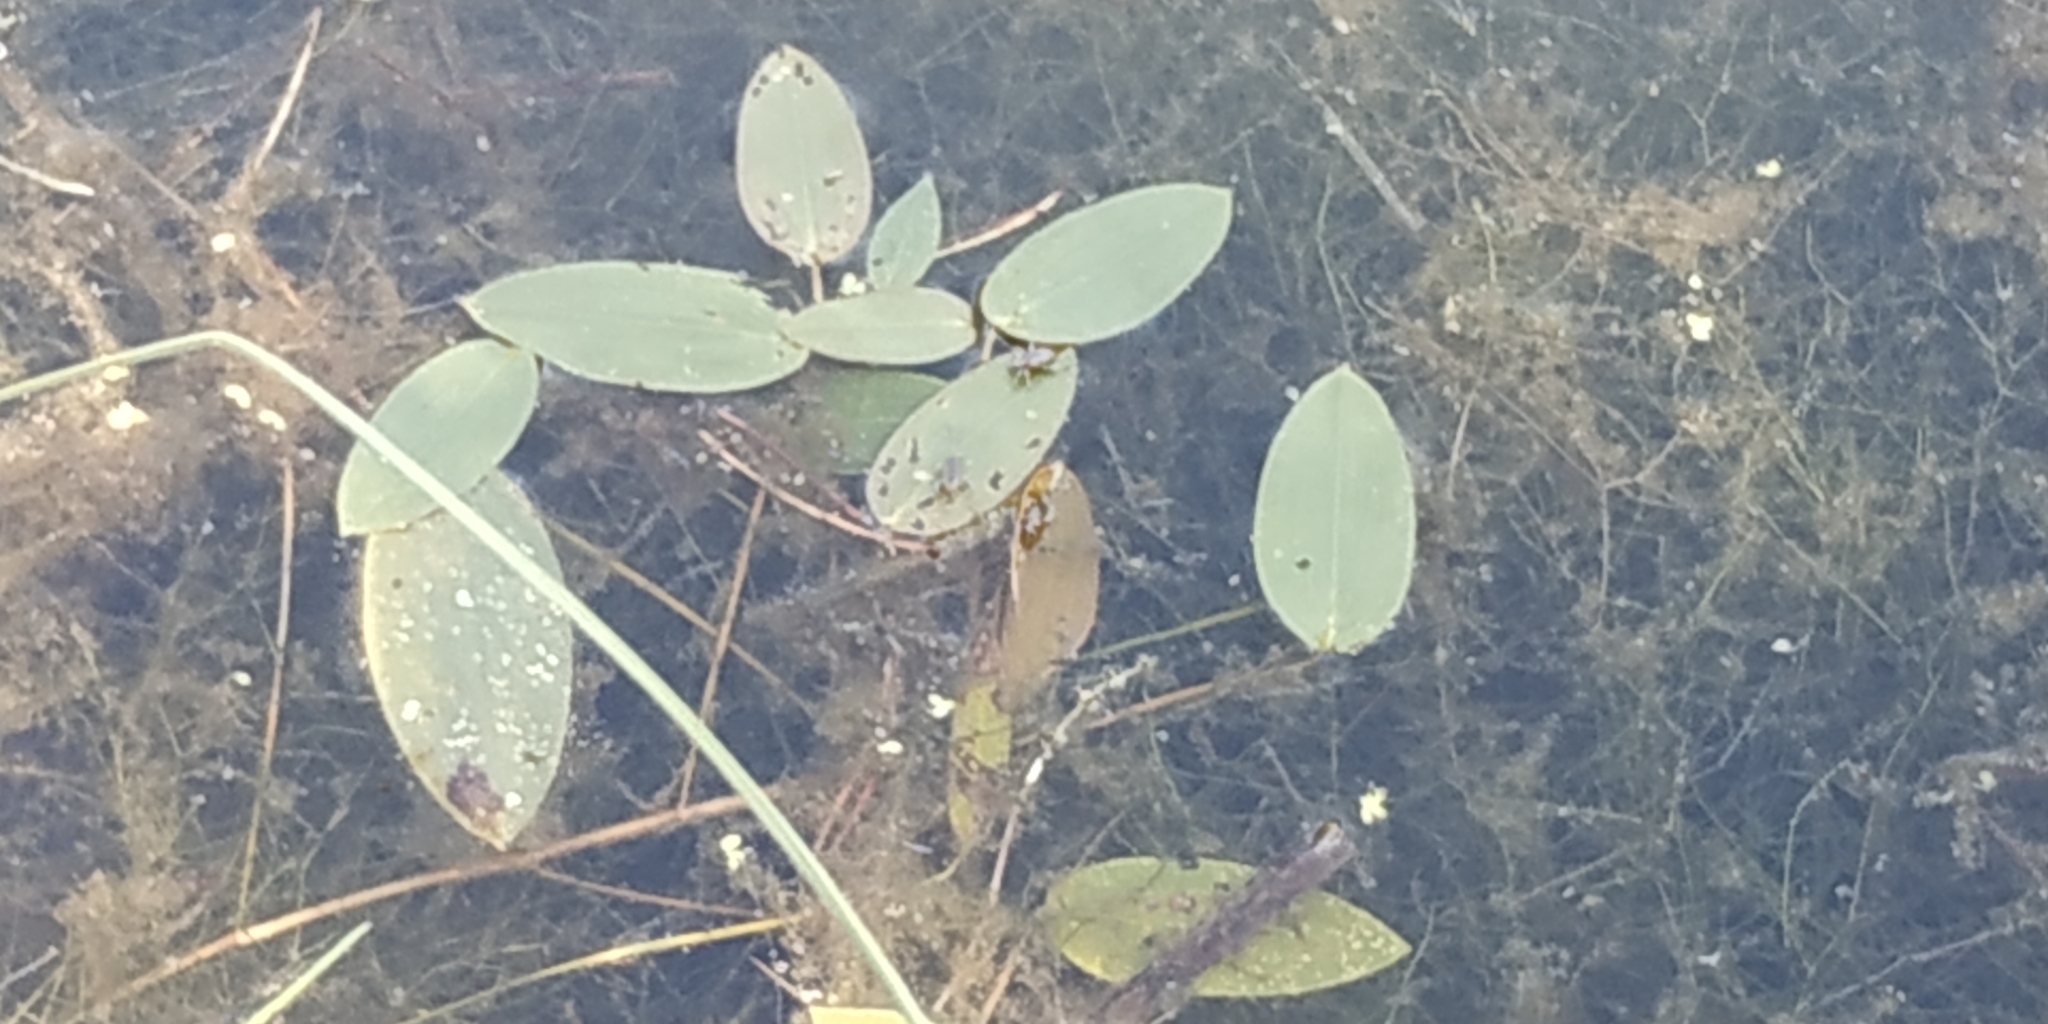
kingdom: Plantae
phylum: Tracheophyta
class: Liliopsida
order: Alismatales
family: Potamogetonaceae
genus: Potamogeton
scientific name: Potamogeton natans
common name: Broad-leaved pondweed
